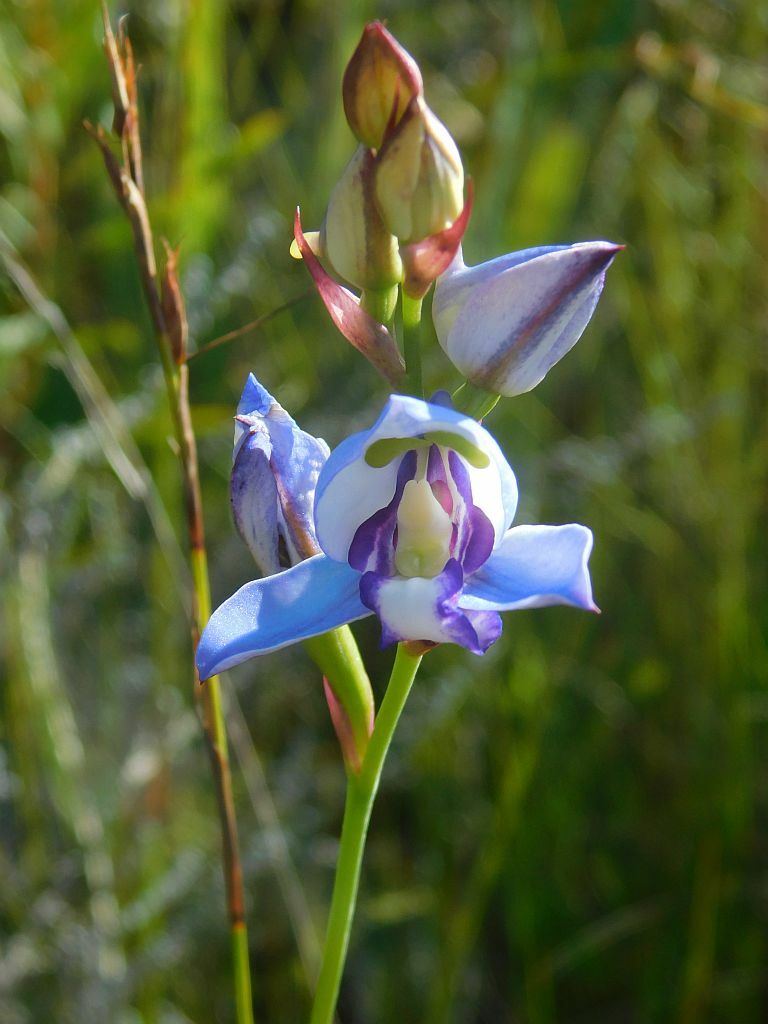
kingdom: Plantae
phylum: Tracheophyta
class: Liliopsida
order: Asparagales
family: Orchidaceae
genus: Disa
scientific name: Disa graminifolia
